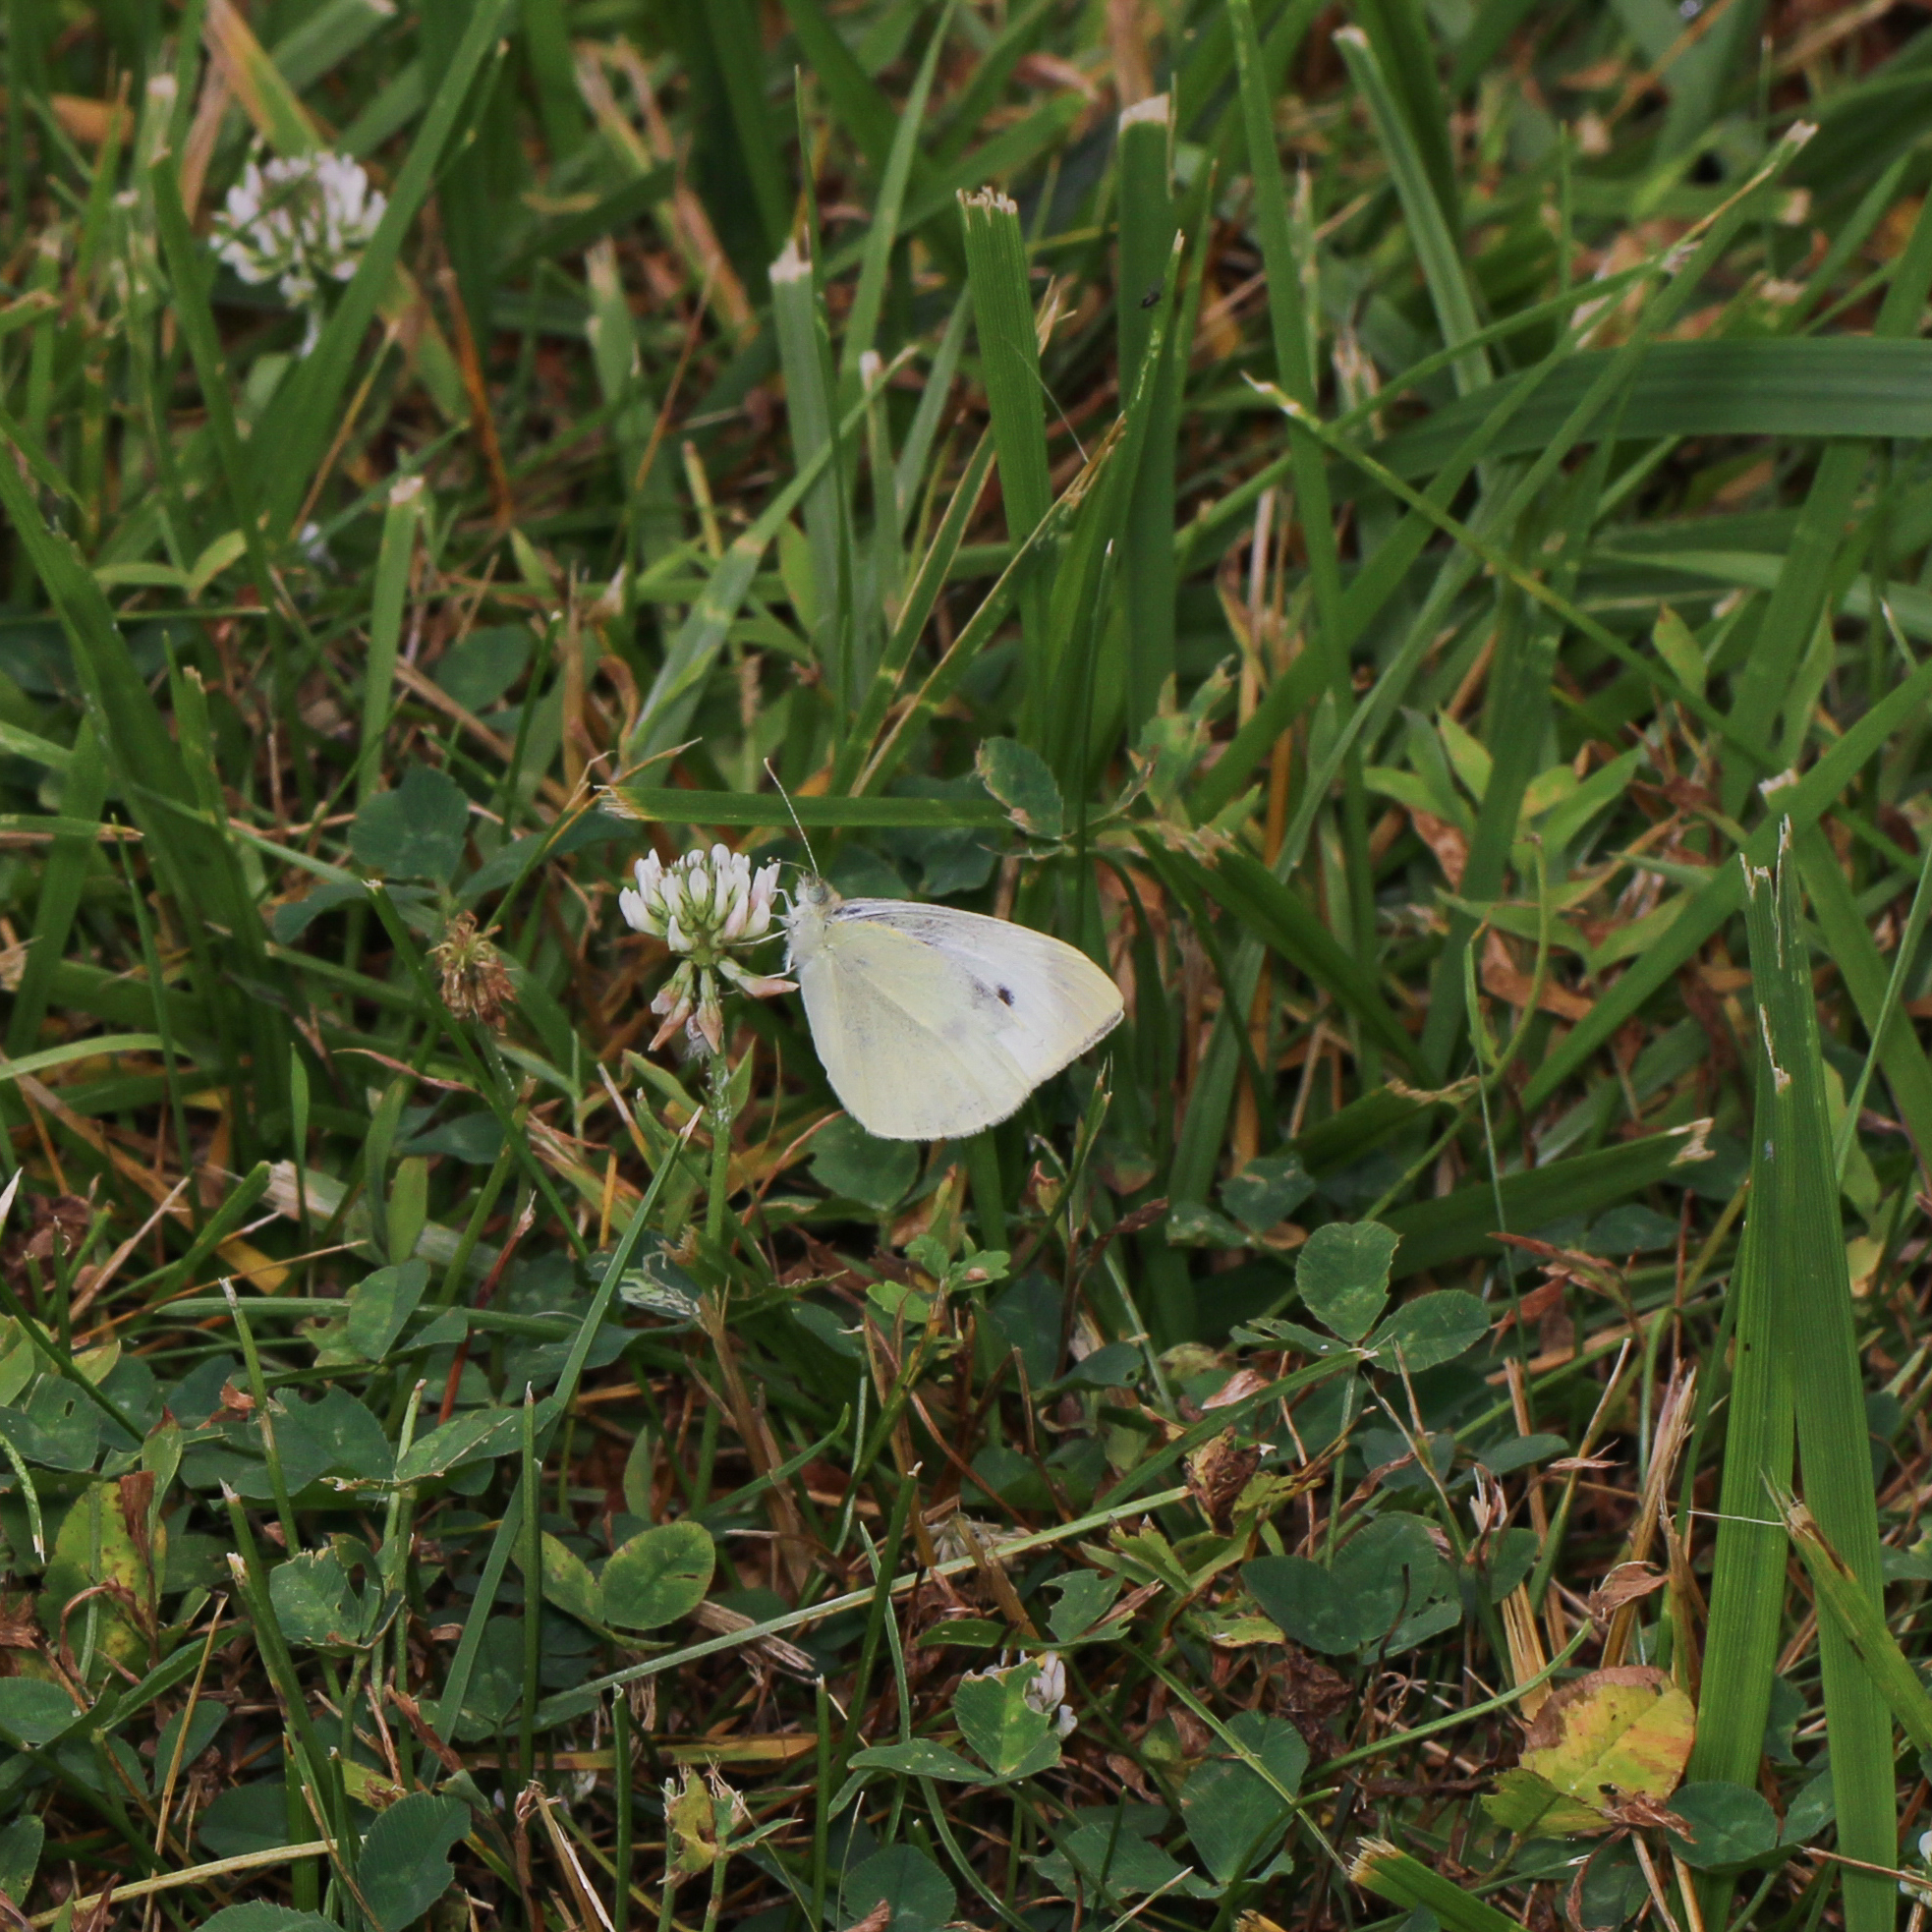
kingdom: Animalia
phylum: Arthropoda
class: Insecta
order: Lepidoptera
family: Pieridae
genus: Pieris
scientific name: Pieris rapae
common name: Small white
